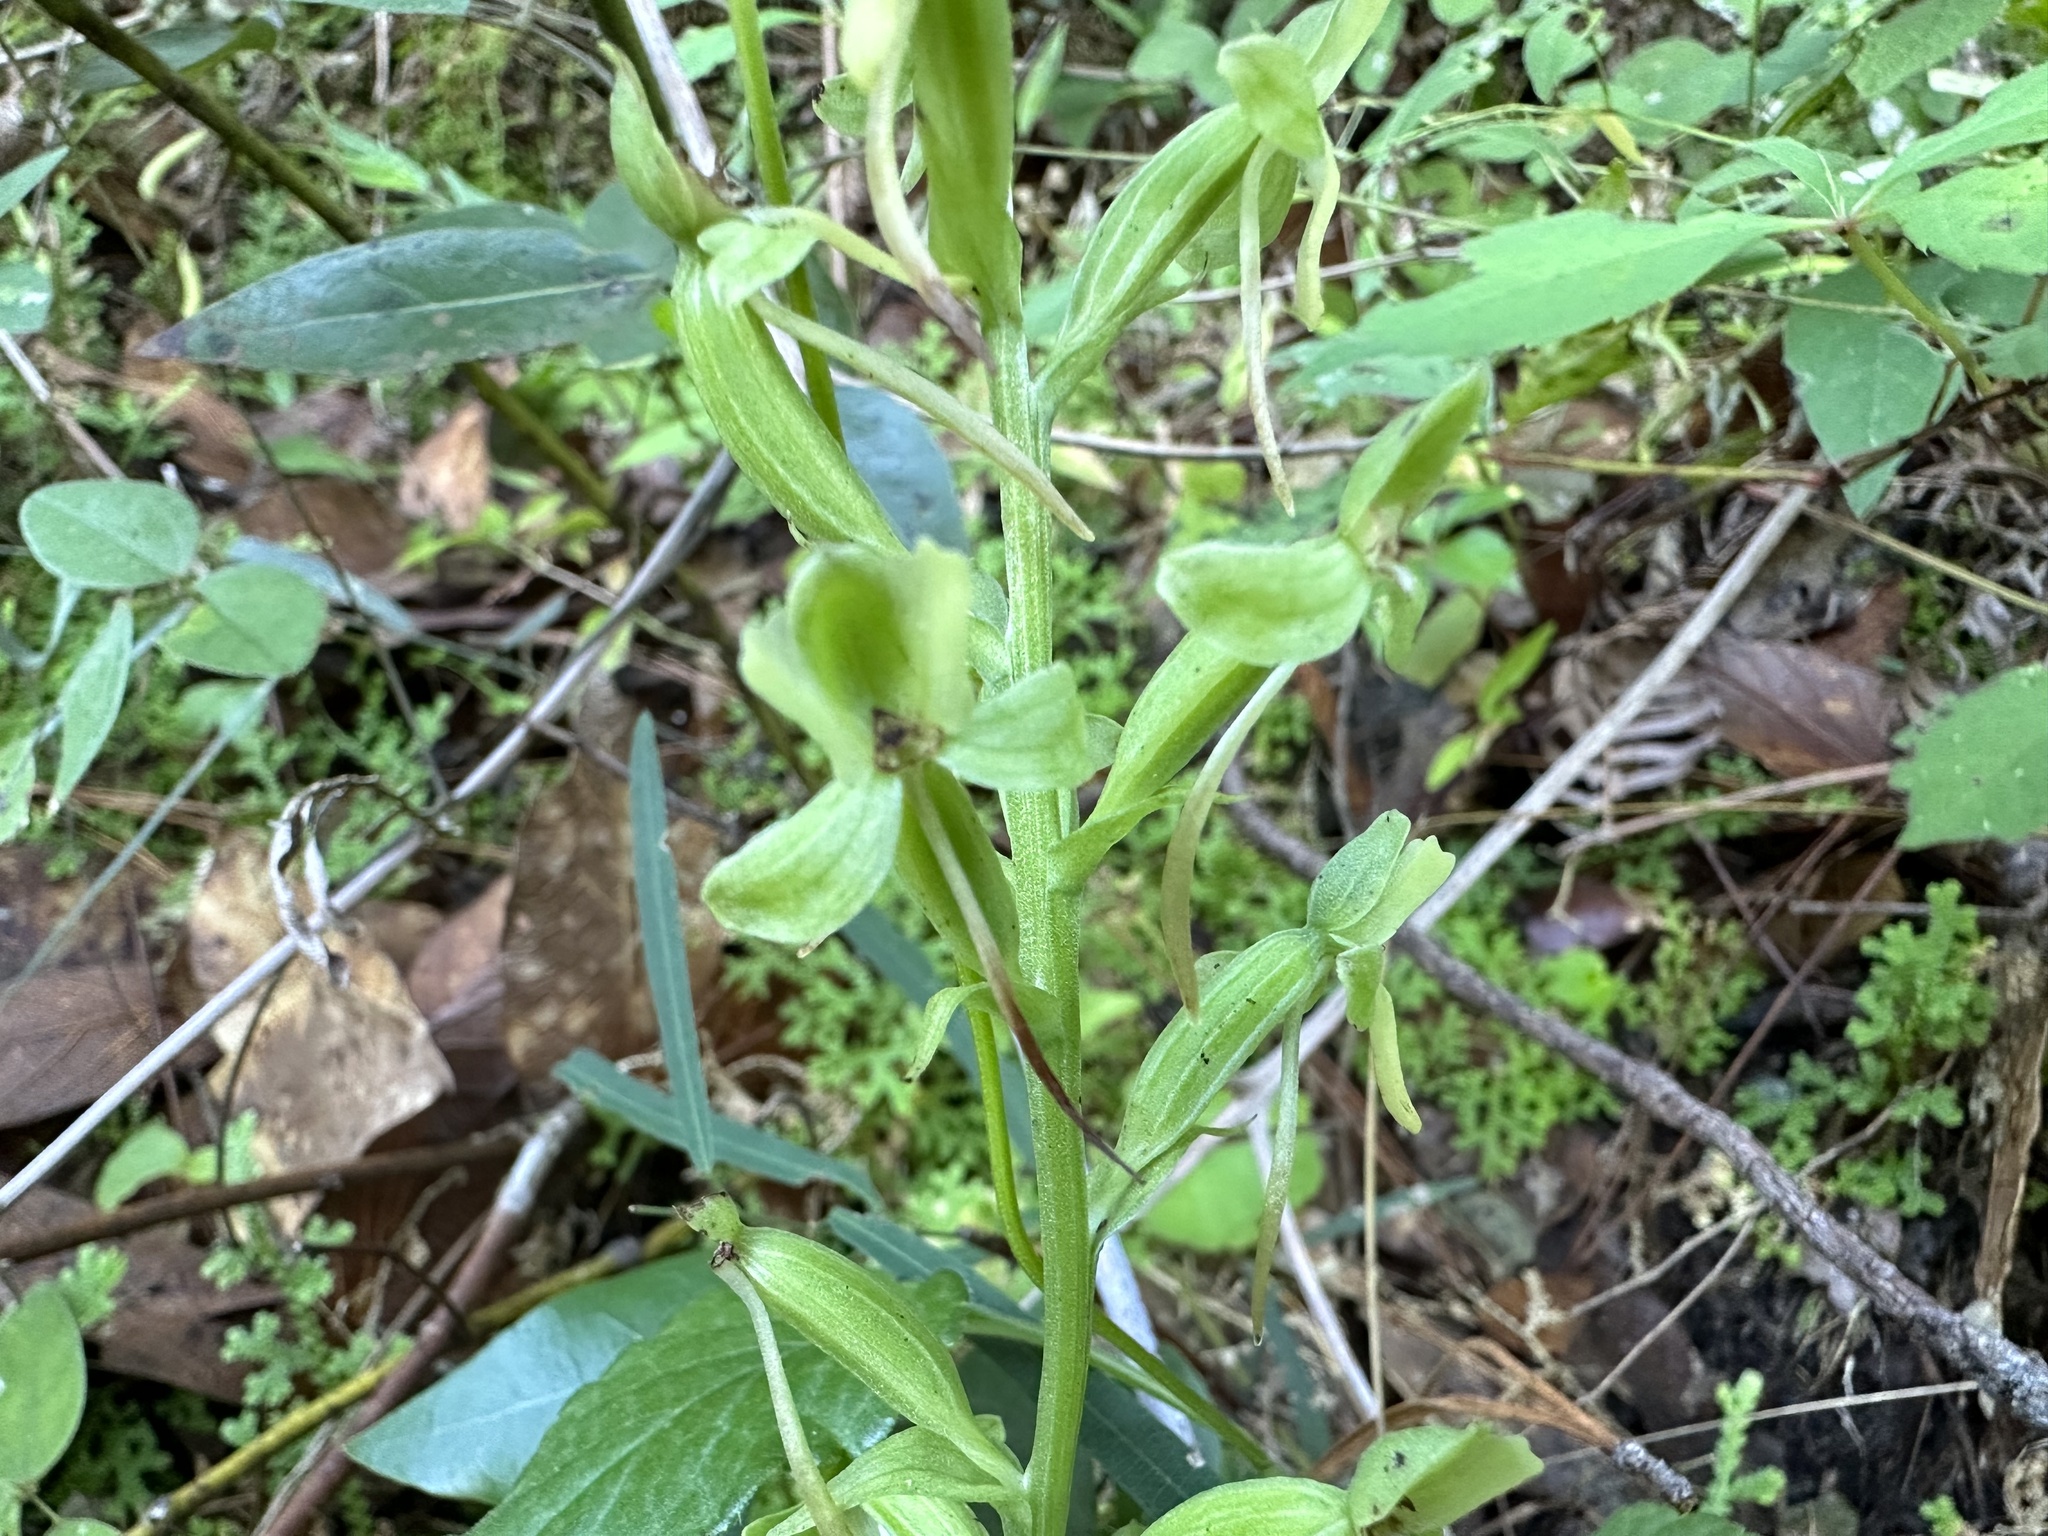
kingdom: Plantae
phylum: Tracheophyta
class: Liliopsida
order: Asparagales
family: Orchidaceae
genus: Habenaria
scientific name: Habenaria floribunda
